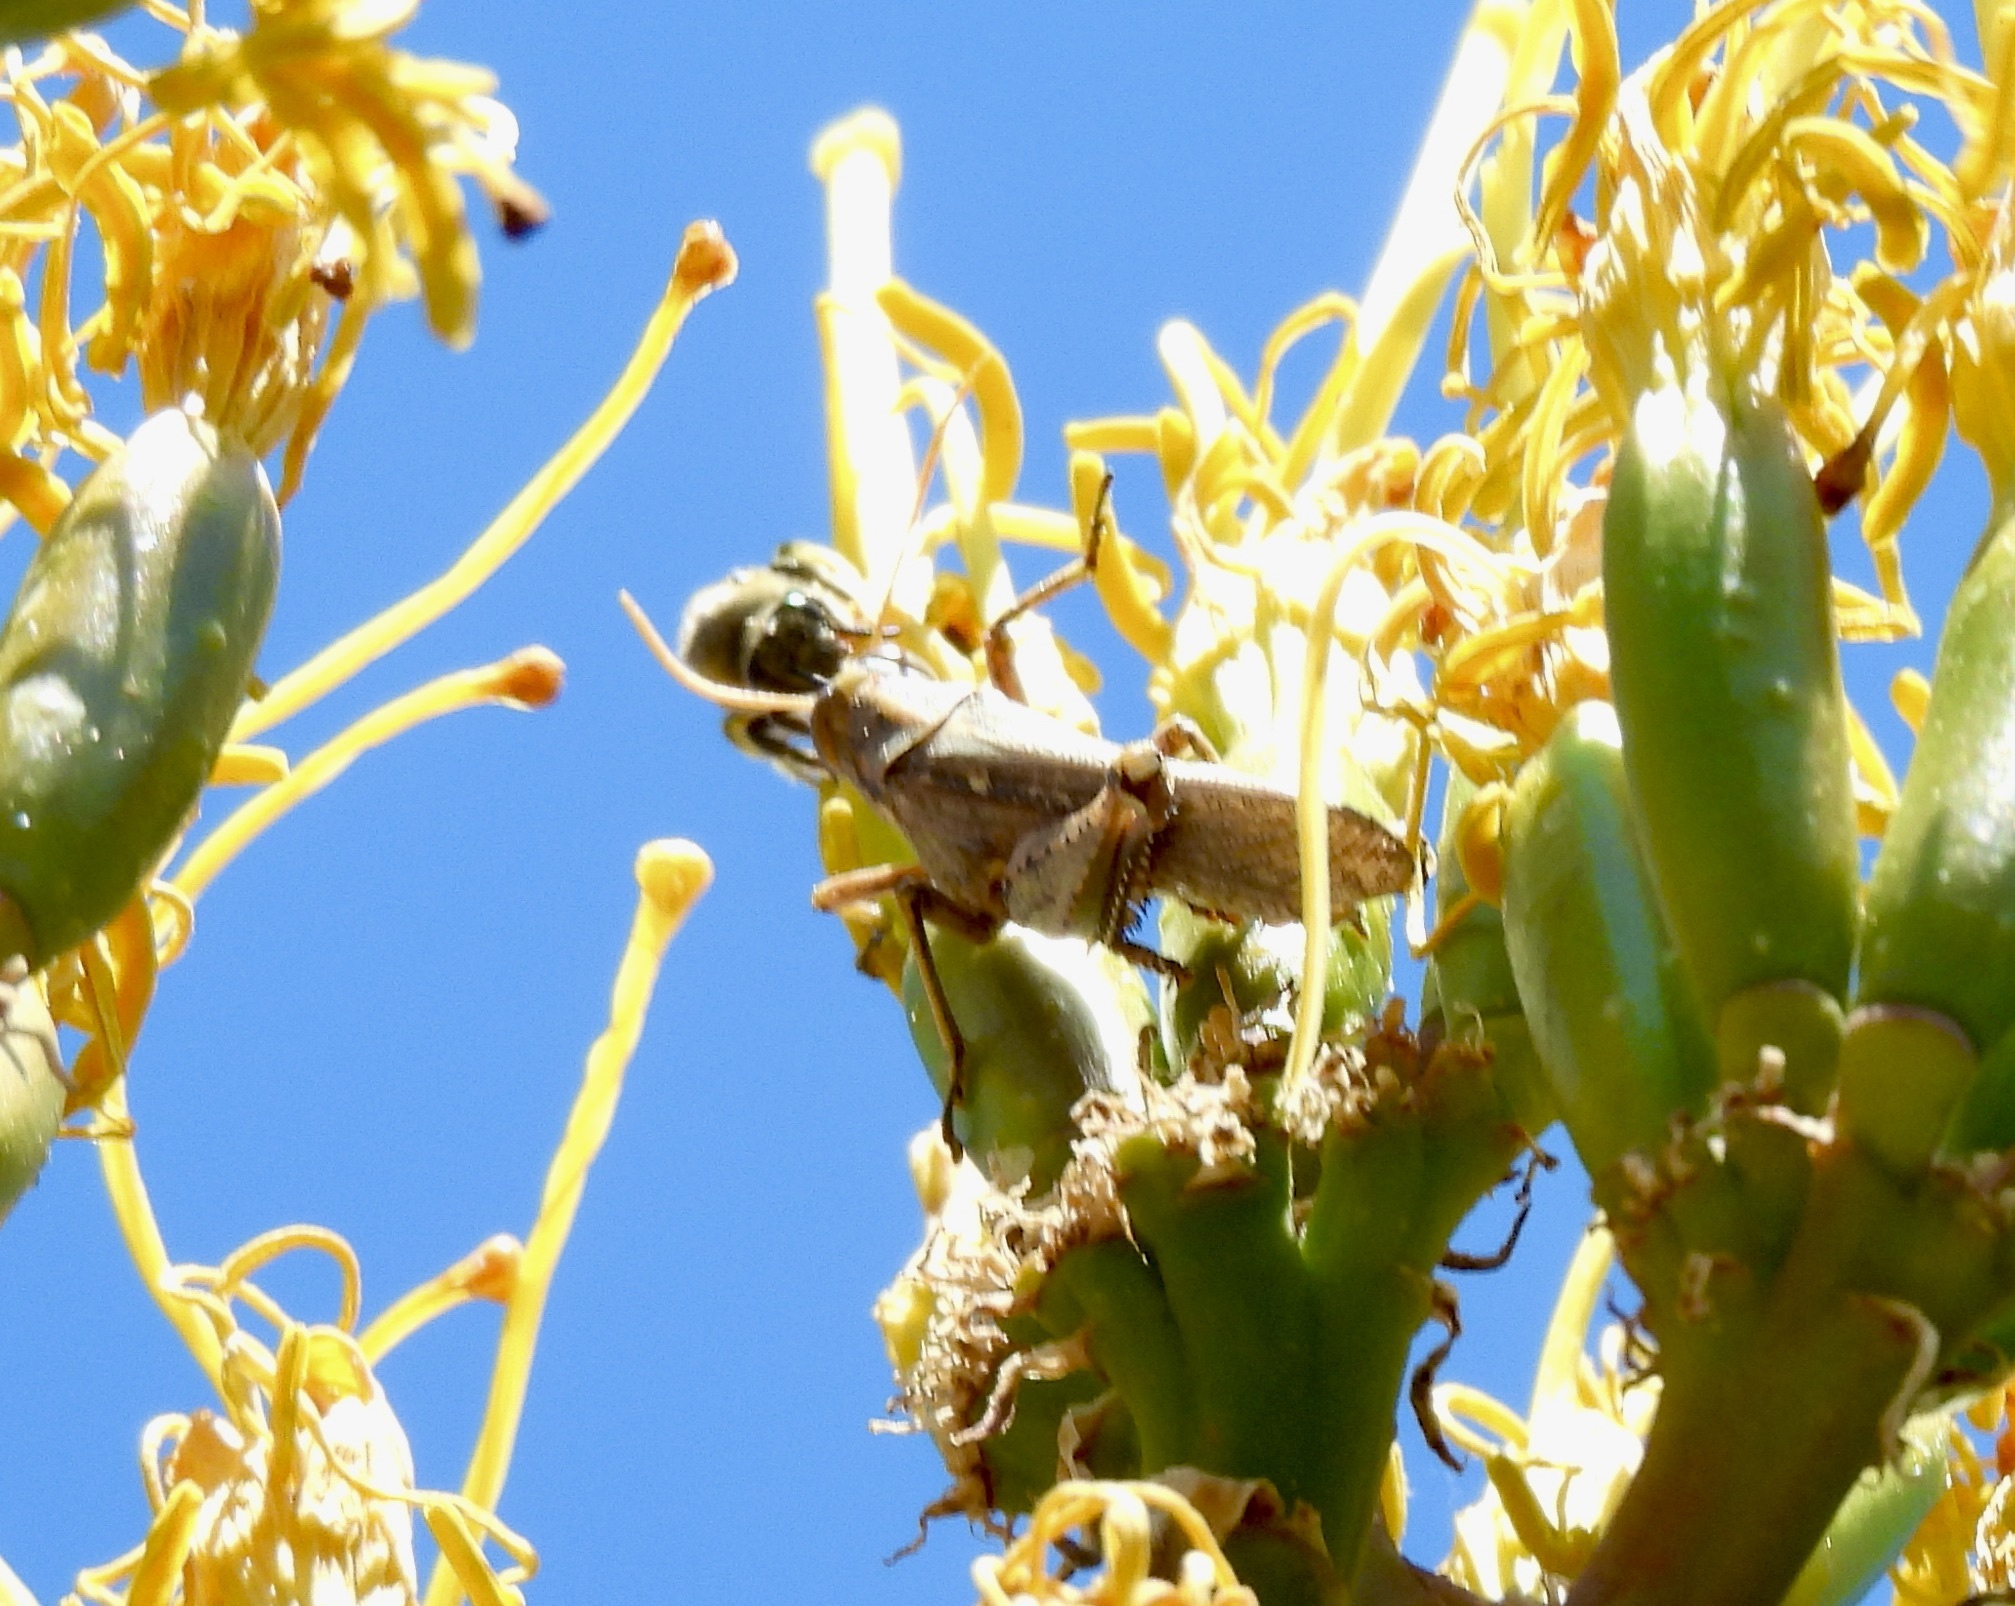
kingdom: Animalia
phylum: Arthropoda
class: Insecta
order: Orthoptera
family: Acrididae
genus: Schistocerca
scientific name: Schistocerca nitens
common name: Vagrant grasshopper
